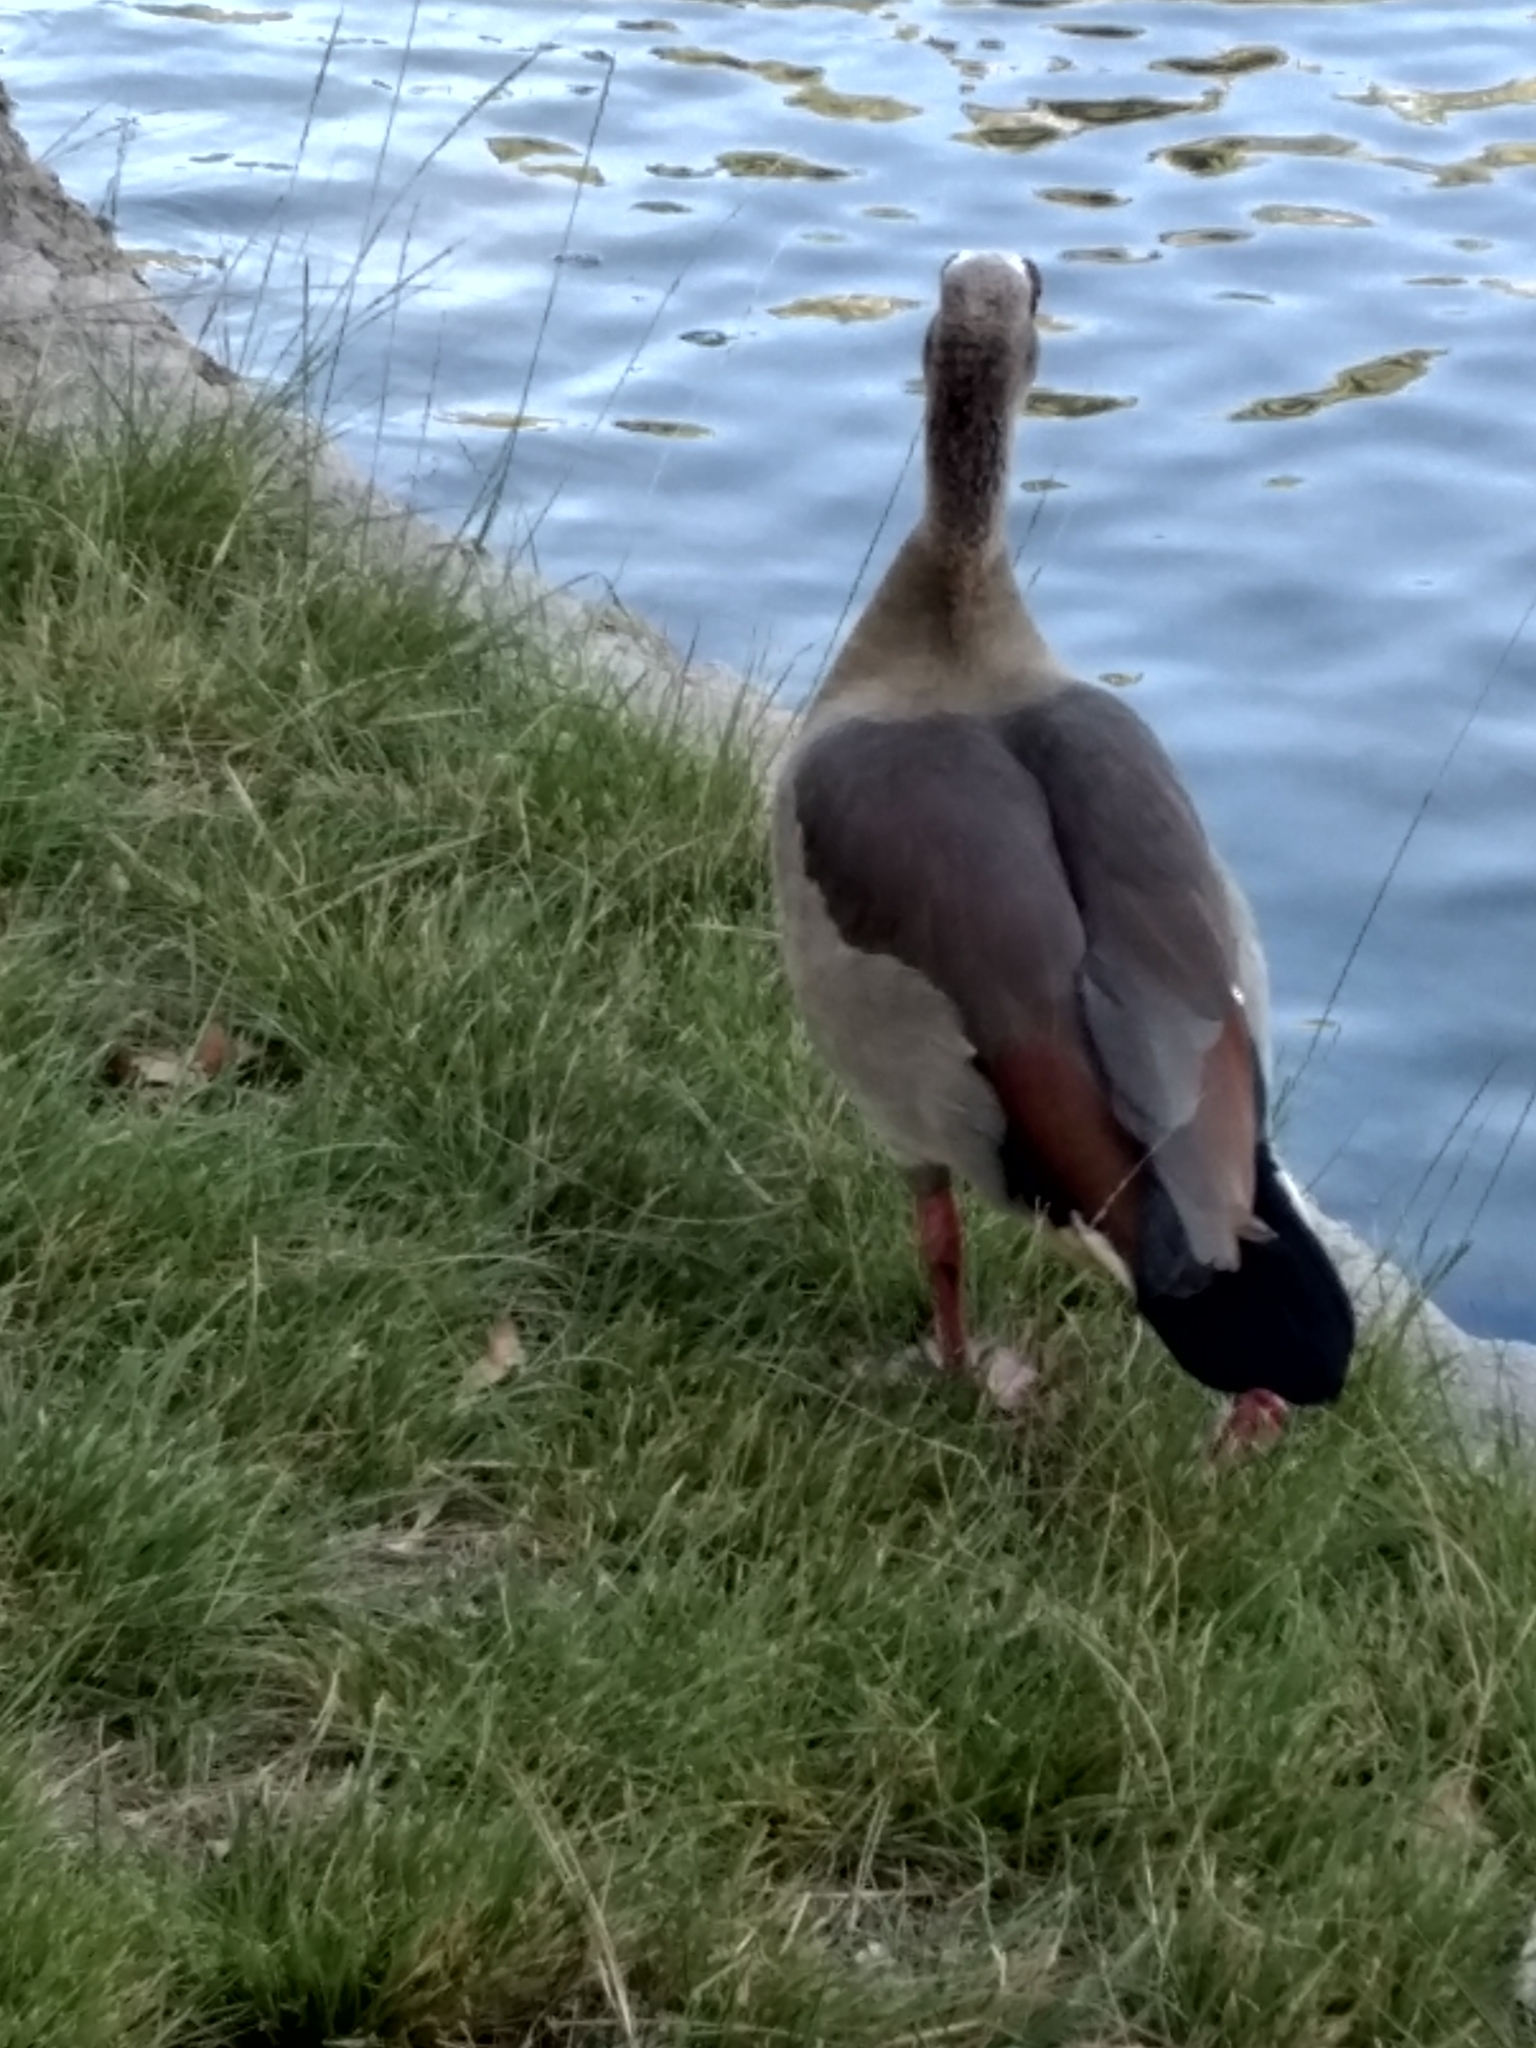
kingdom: Animalia
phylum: Chordata
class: Aves
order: Anseriformes
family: Anatidae
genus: Alopochen
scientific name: Alopochen aegyptiaca
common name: Egyptian goose
